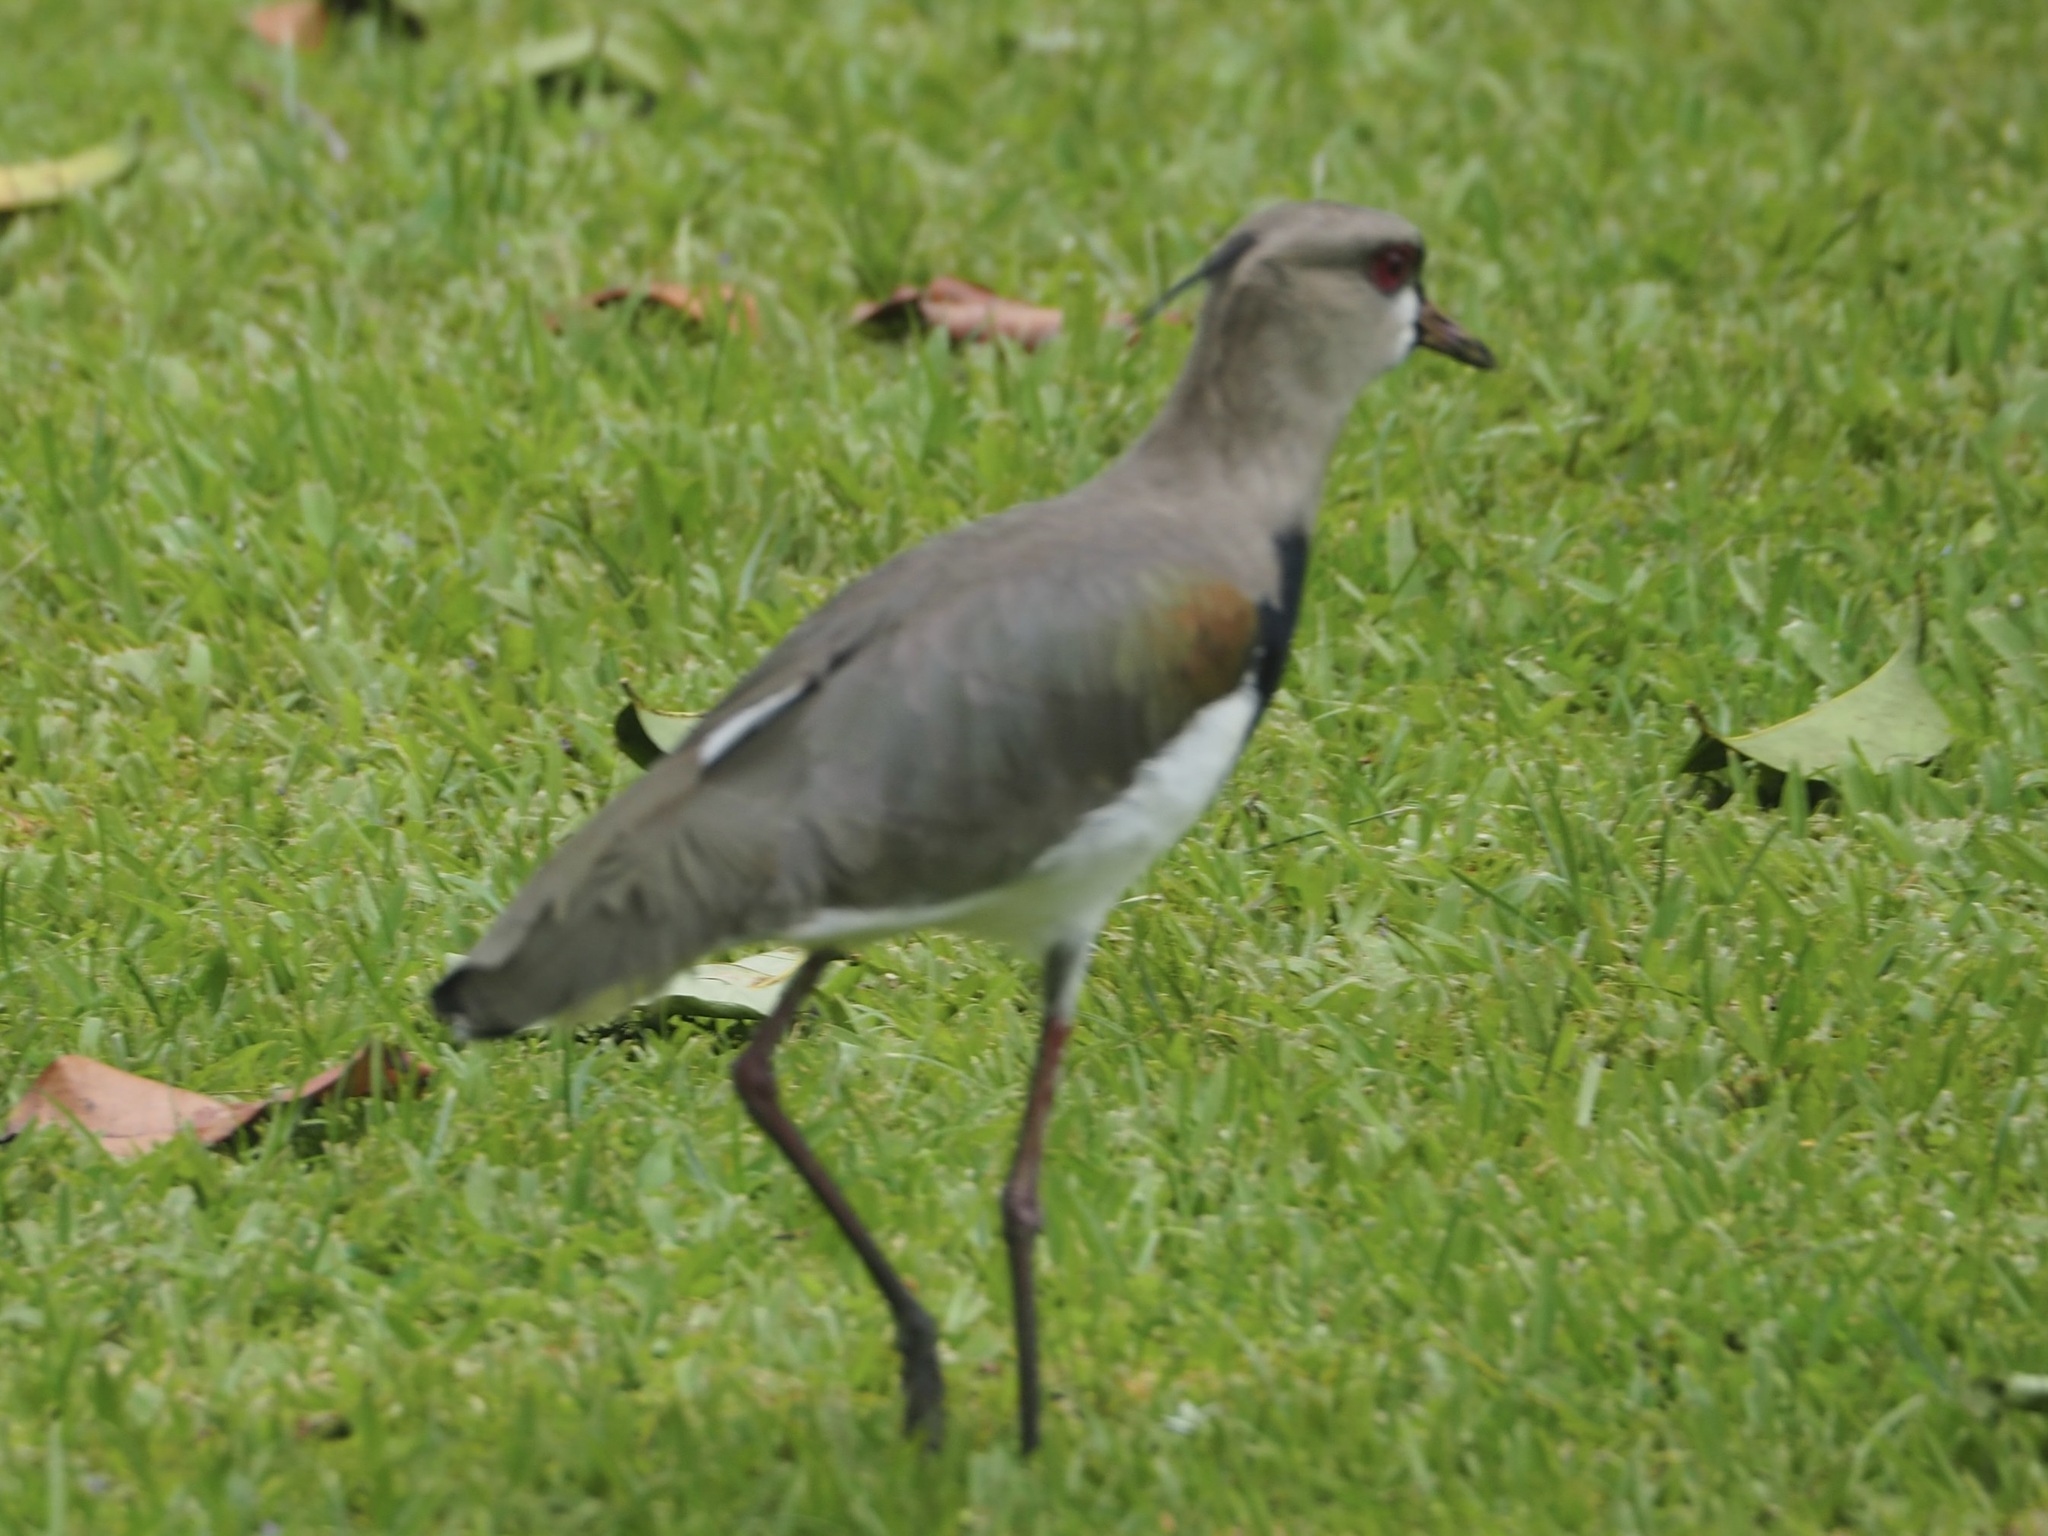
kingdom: Animalia
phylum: Chordata
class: Aves
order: Charadriiformes
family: Charadriidae
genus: Vanellus
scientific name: Vanellus chilensis
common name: Southern lapwing
